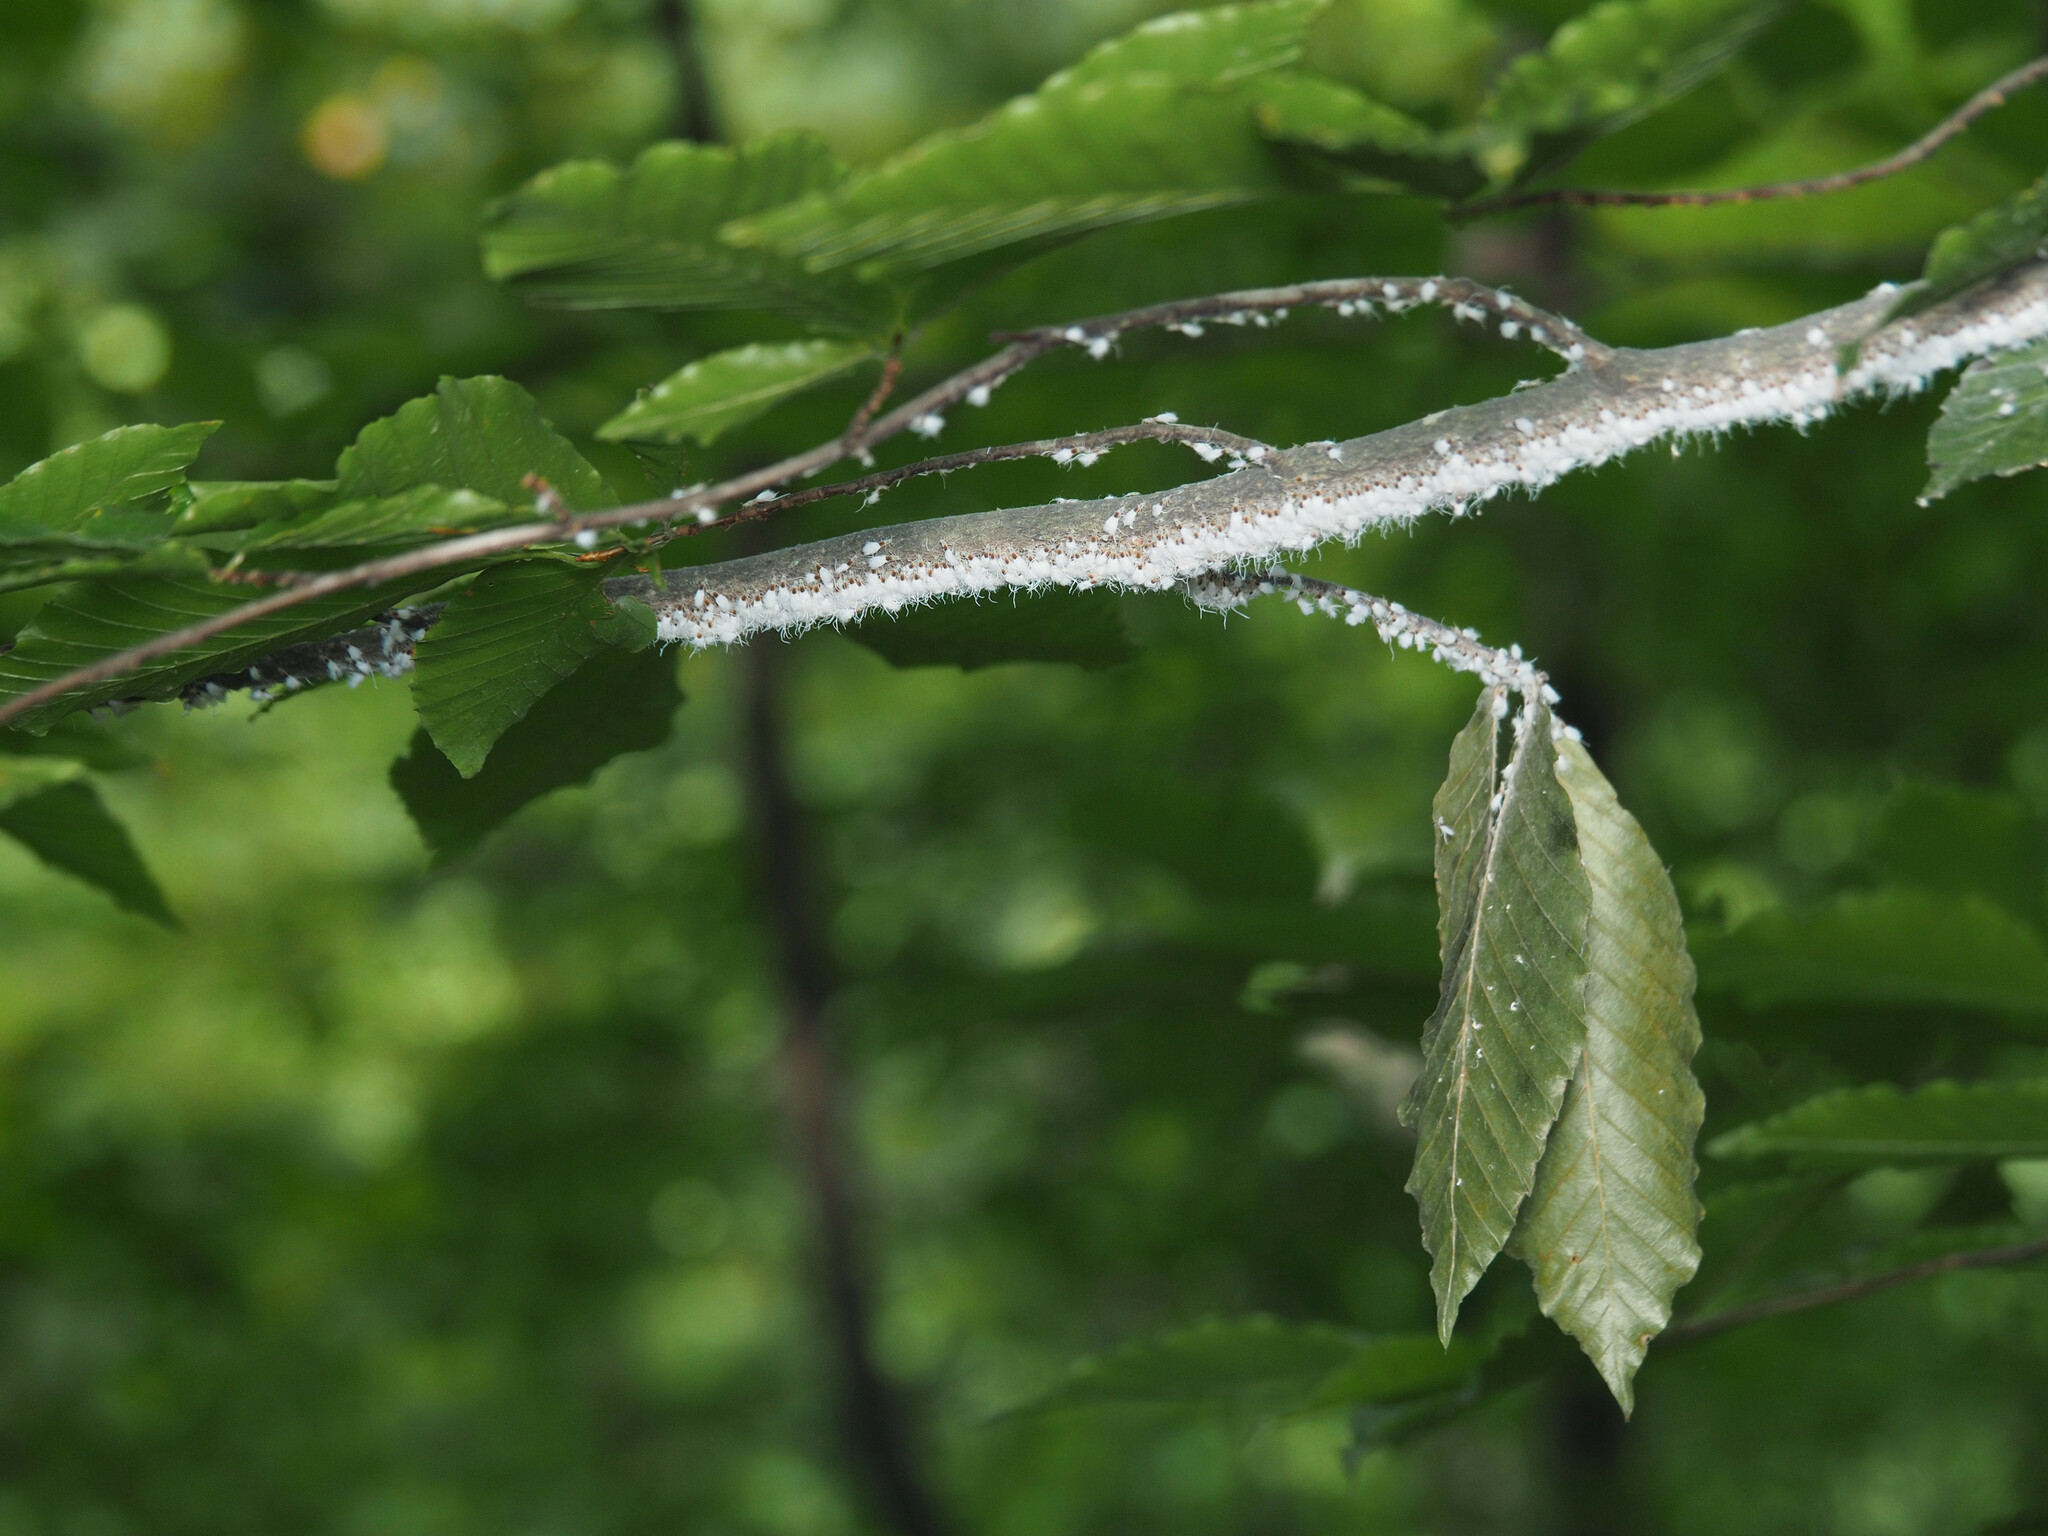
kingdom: Animalia
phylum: Arthropoda
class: Insecta
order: Hemiptera
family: Aphididae
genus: Grylloprociphilus
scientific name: Grylloprociphilus imbricator
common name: Beech blight aphid
